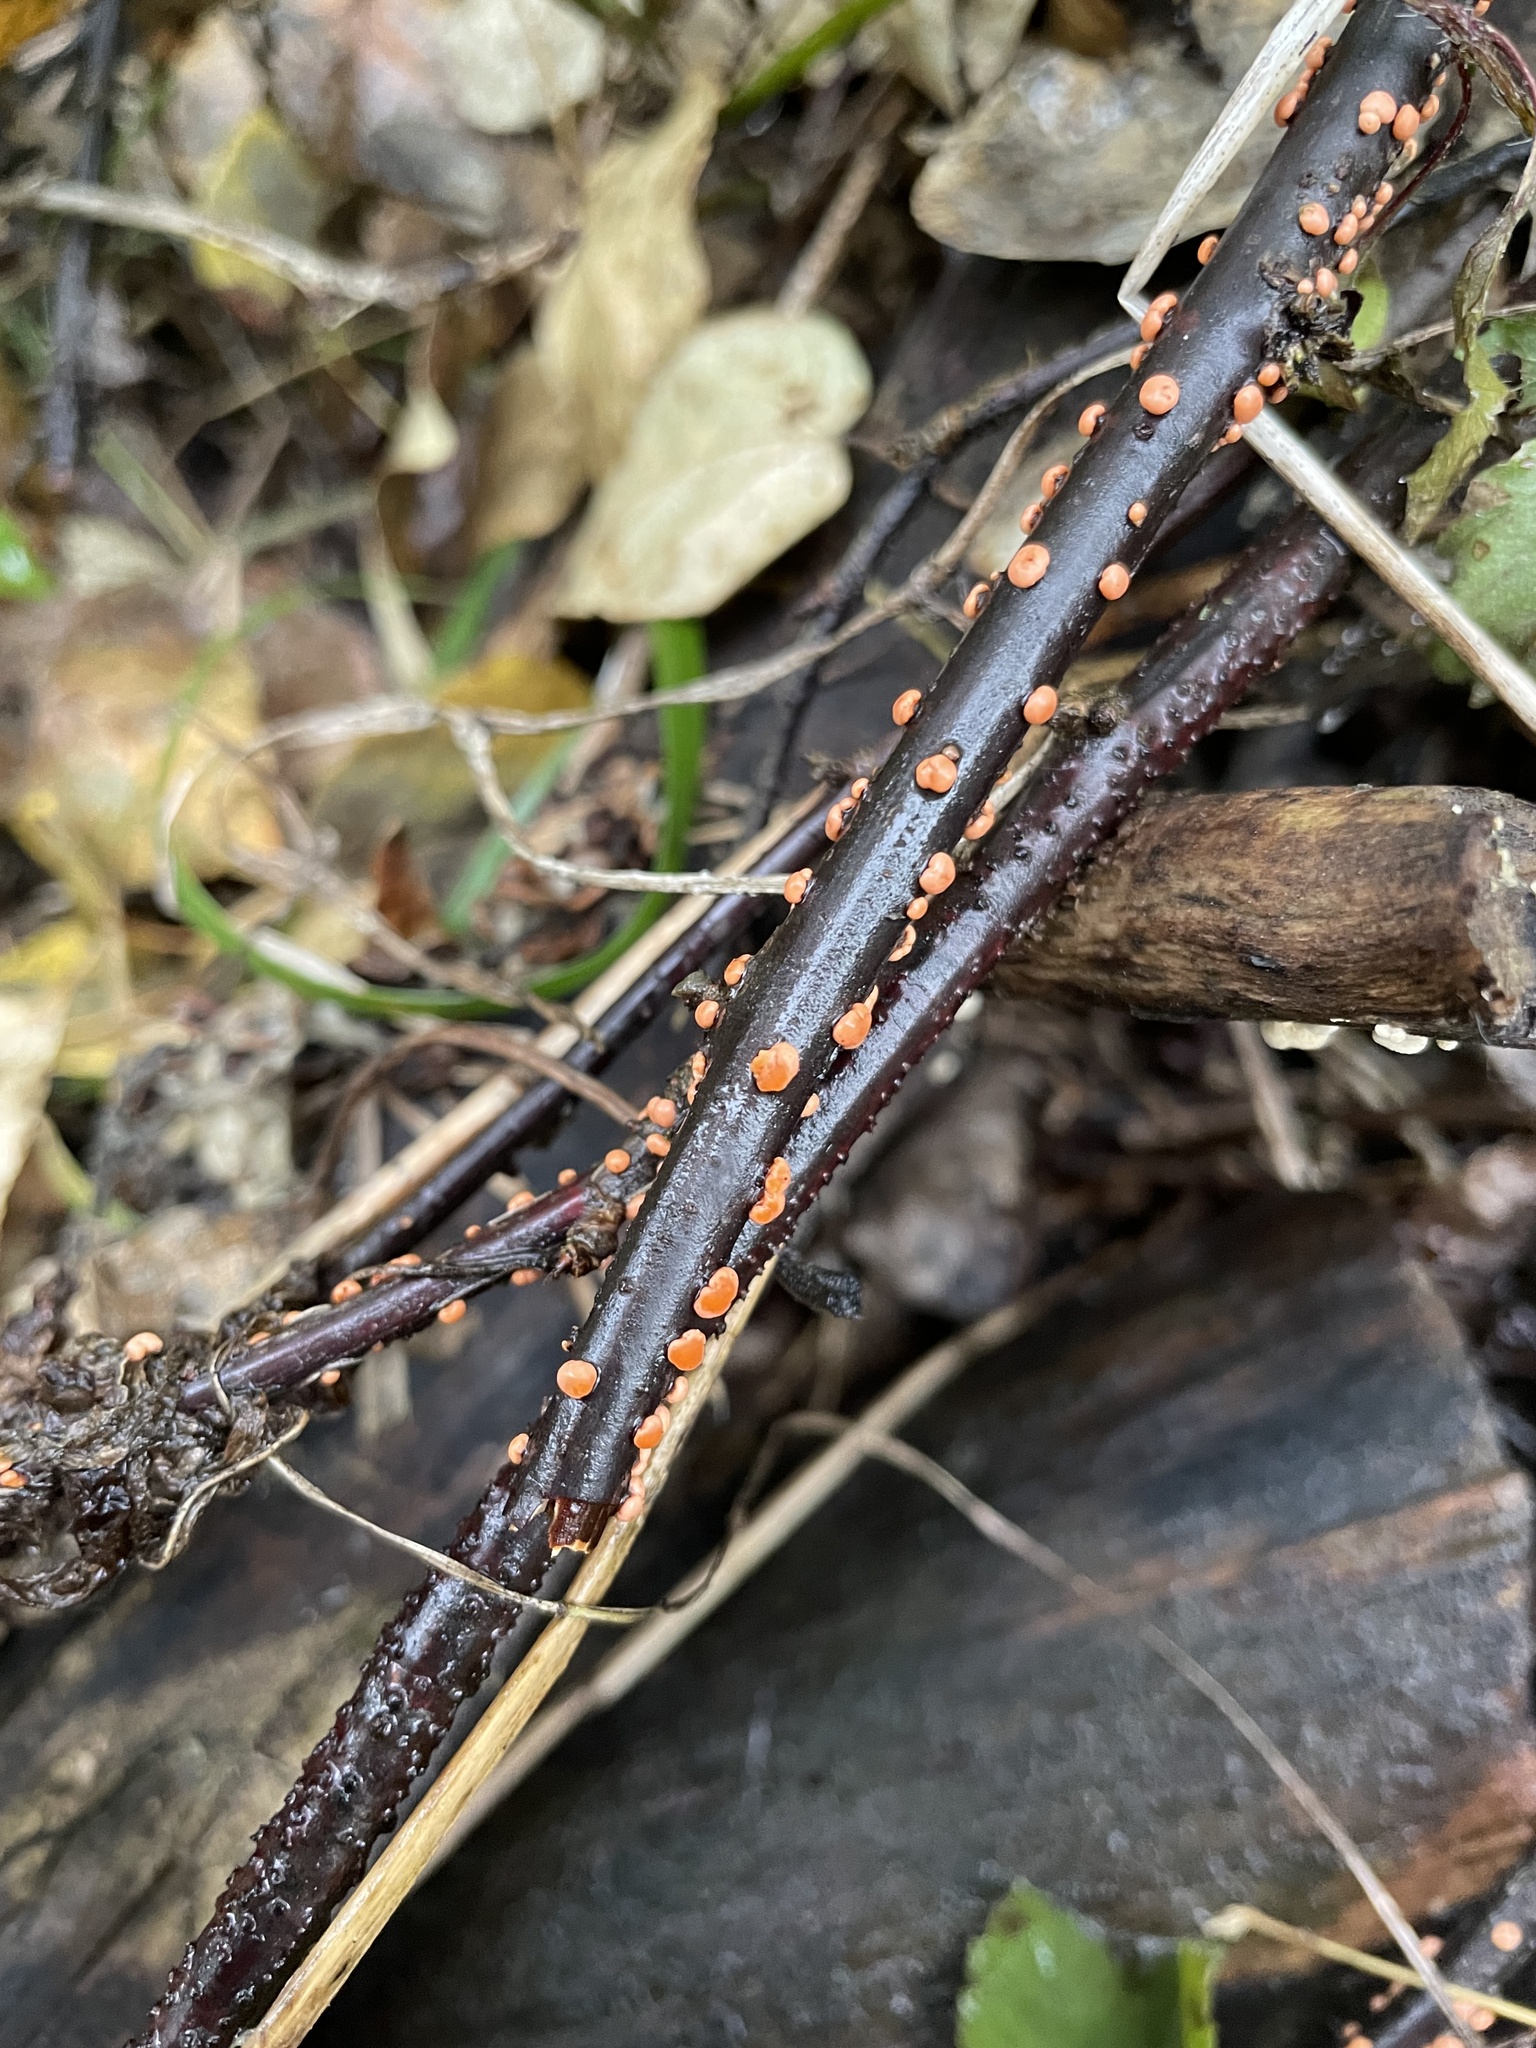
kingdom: Fungi
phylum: Ascomycota
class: Sordariomycetes
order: Hypocreales
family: Nectriaceae
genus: Nectria
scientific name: Nectria cinnabarina
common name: Coral spot
